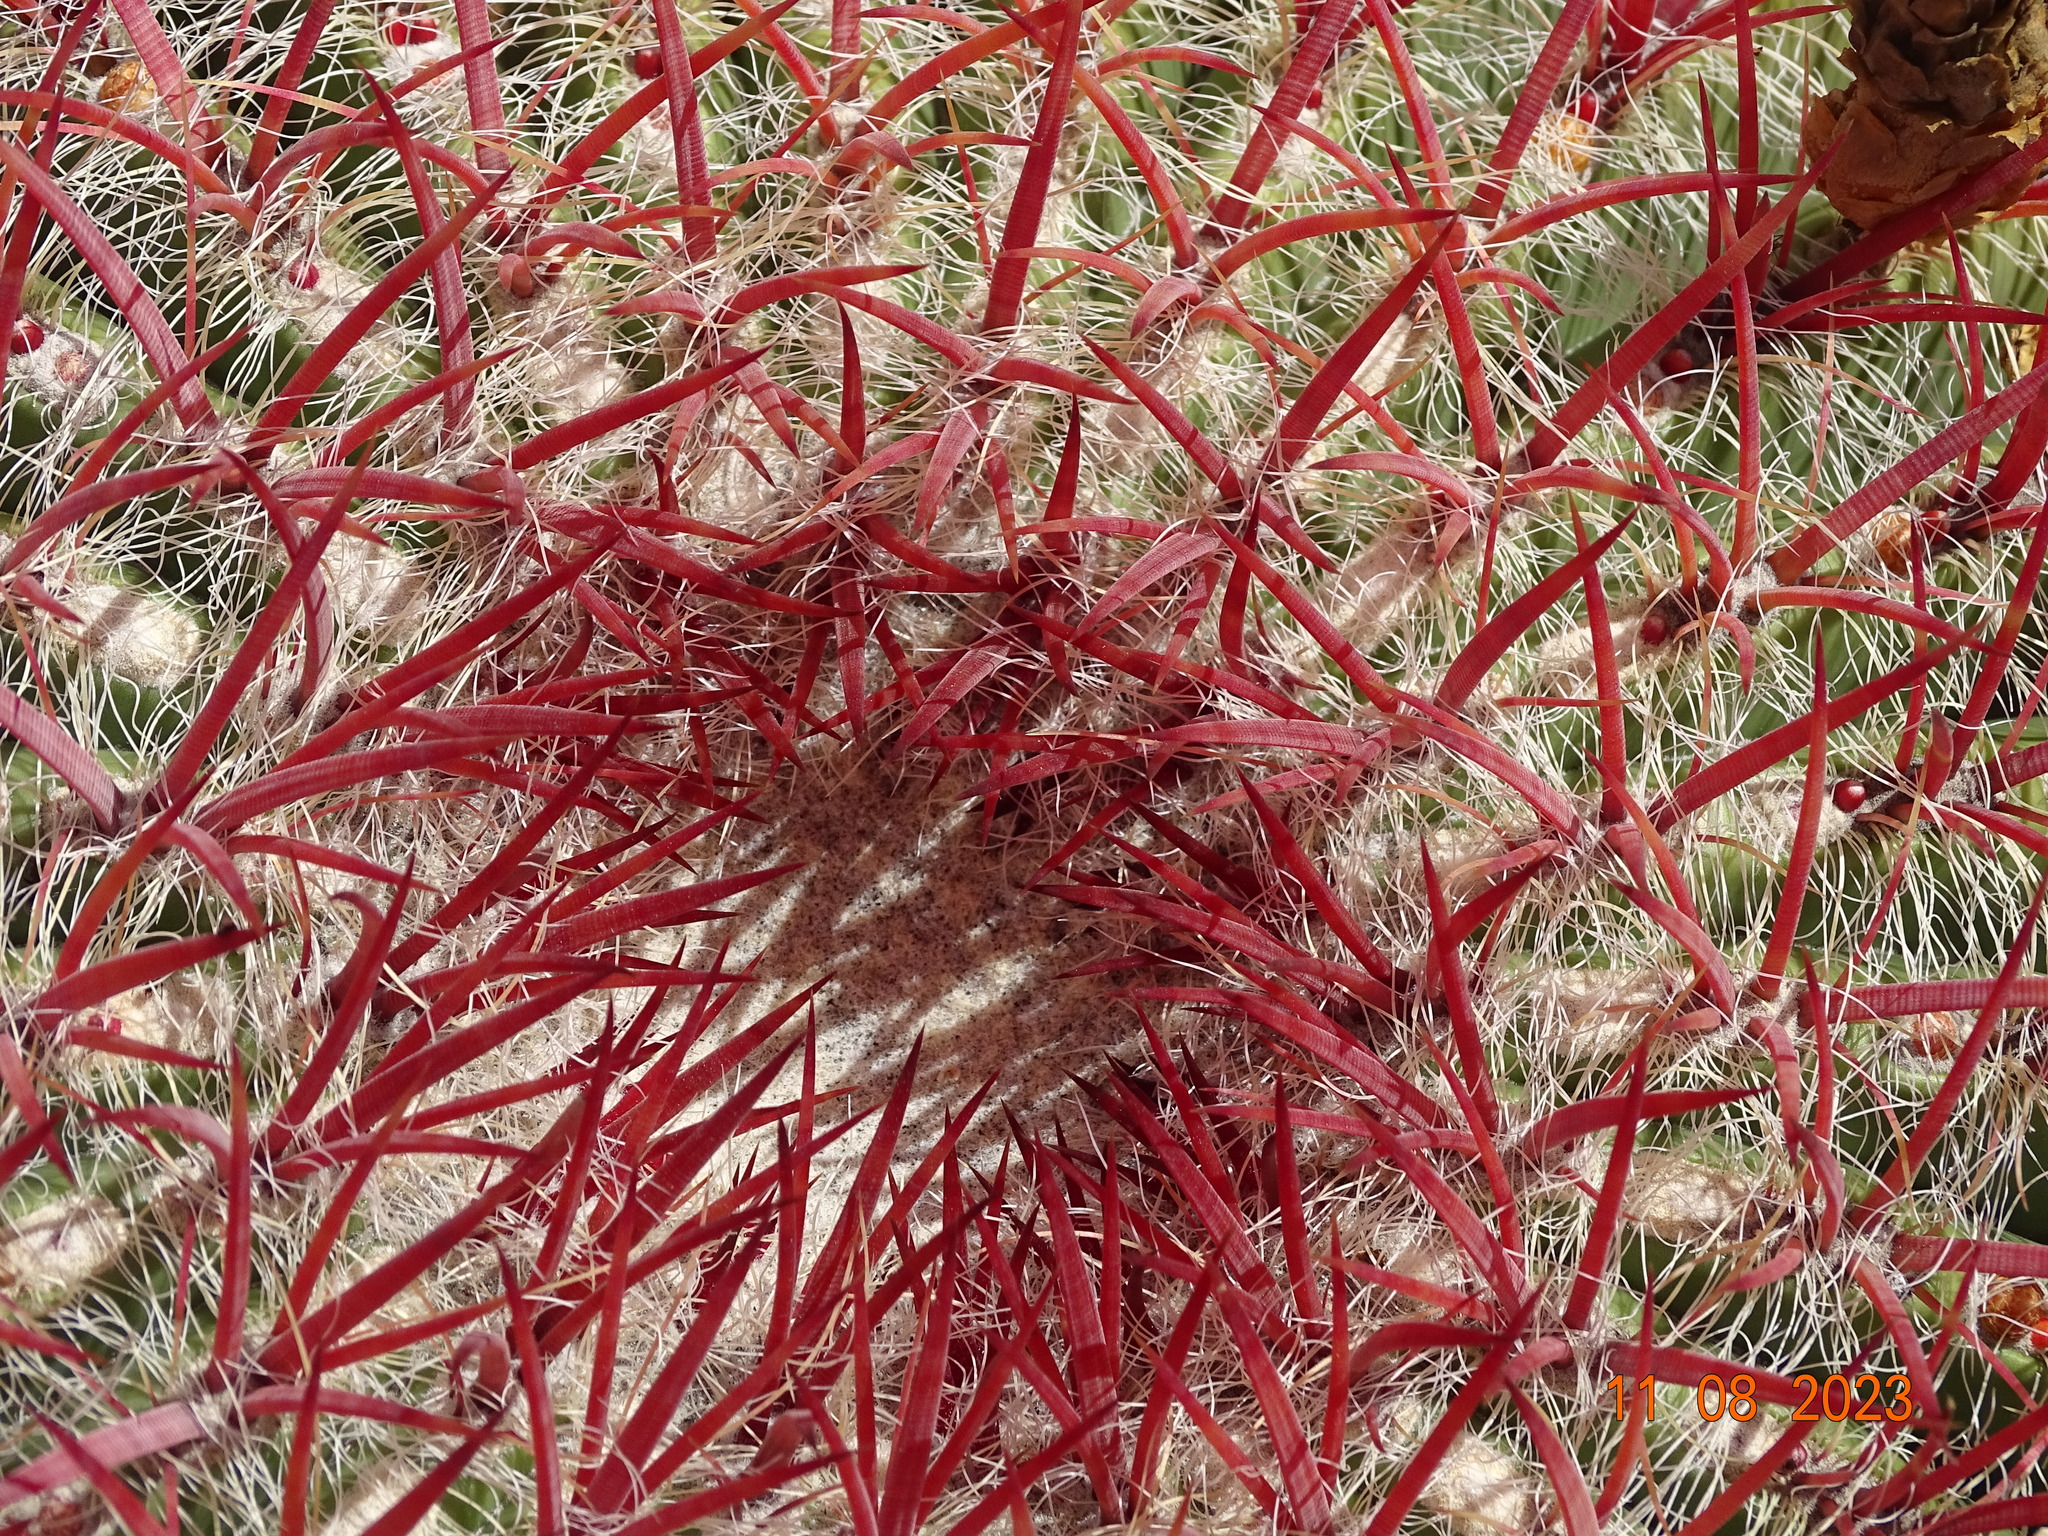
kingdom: Plantae
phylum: Tracheophyta
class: Magnoliopsida
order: Caryophyllales
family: Cactaceae
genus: Ferocactus
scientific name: Ferocactus pilosus
